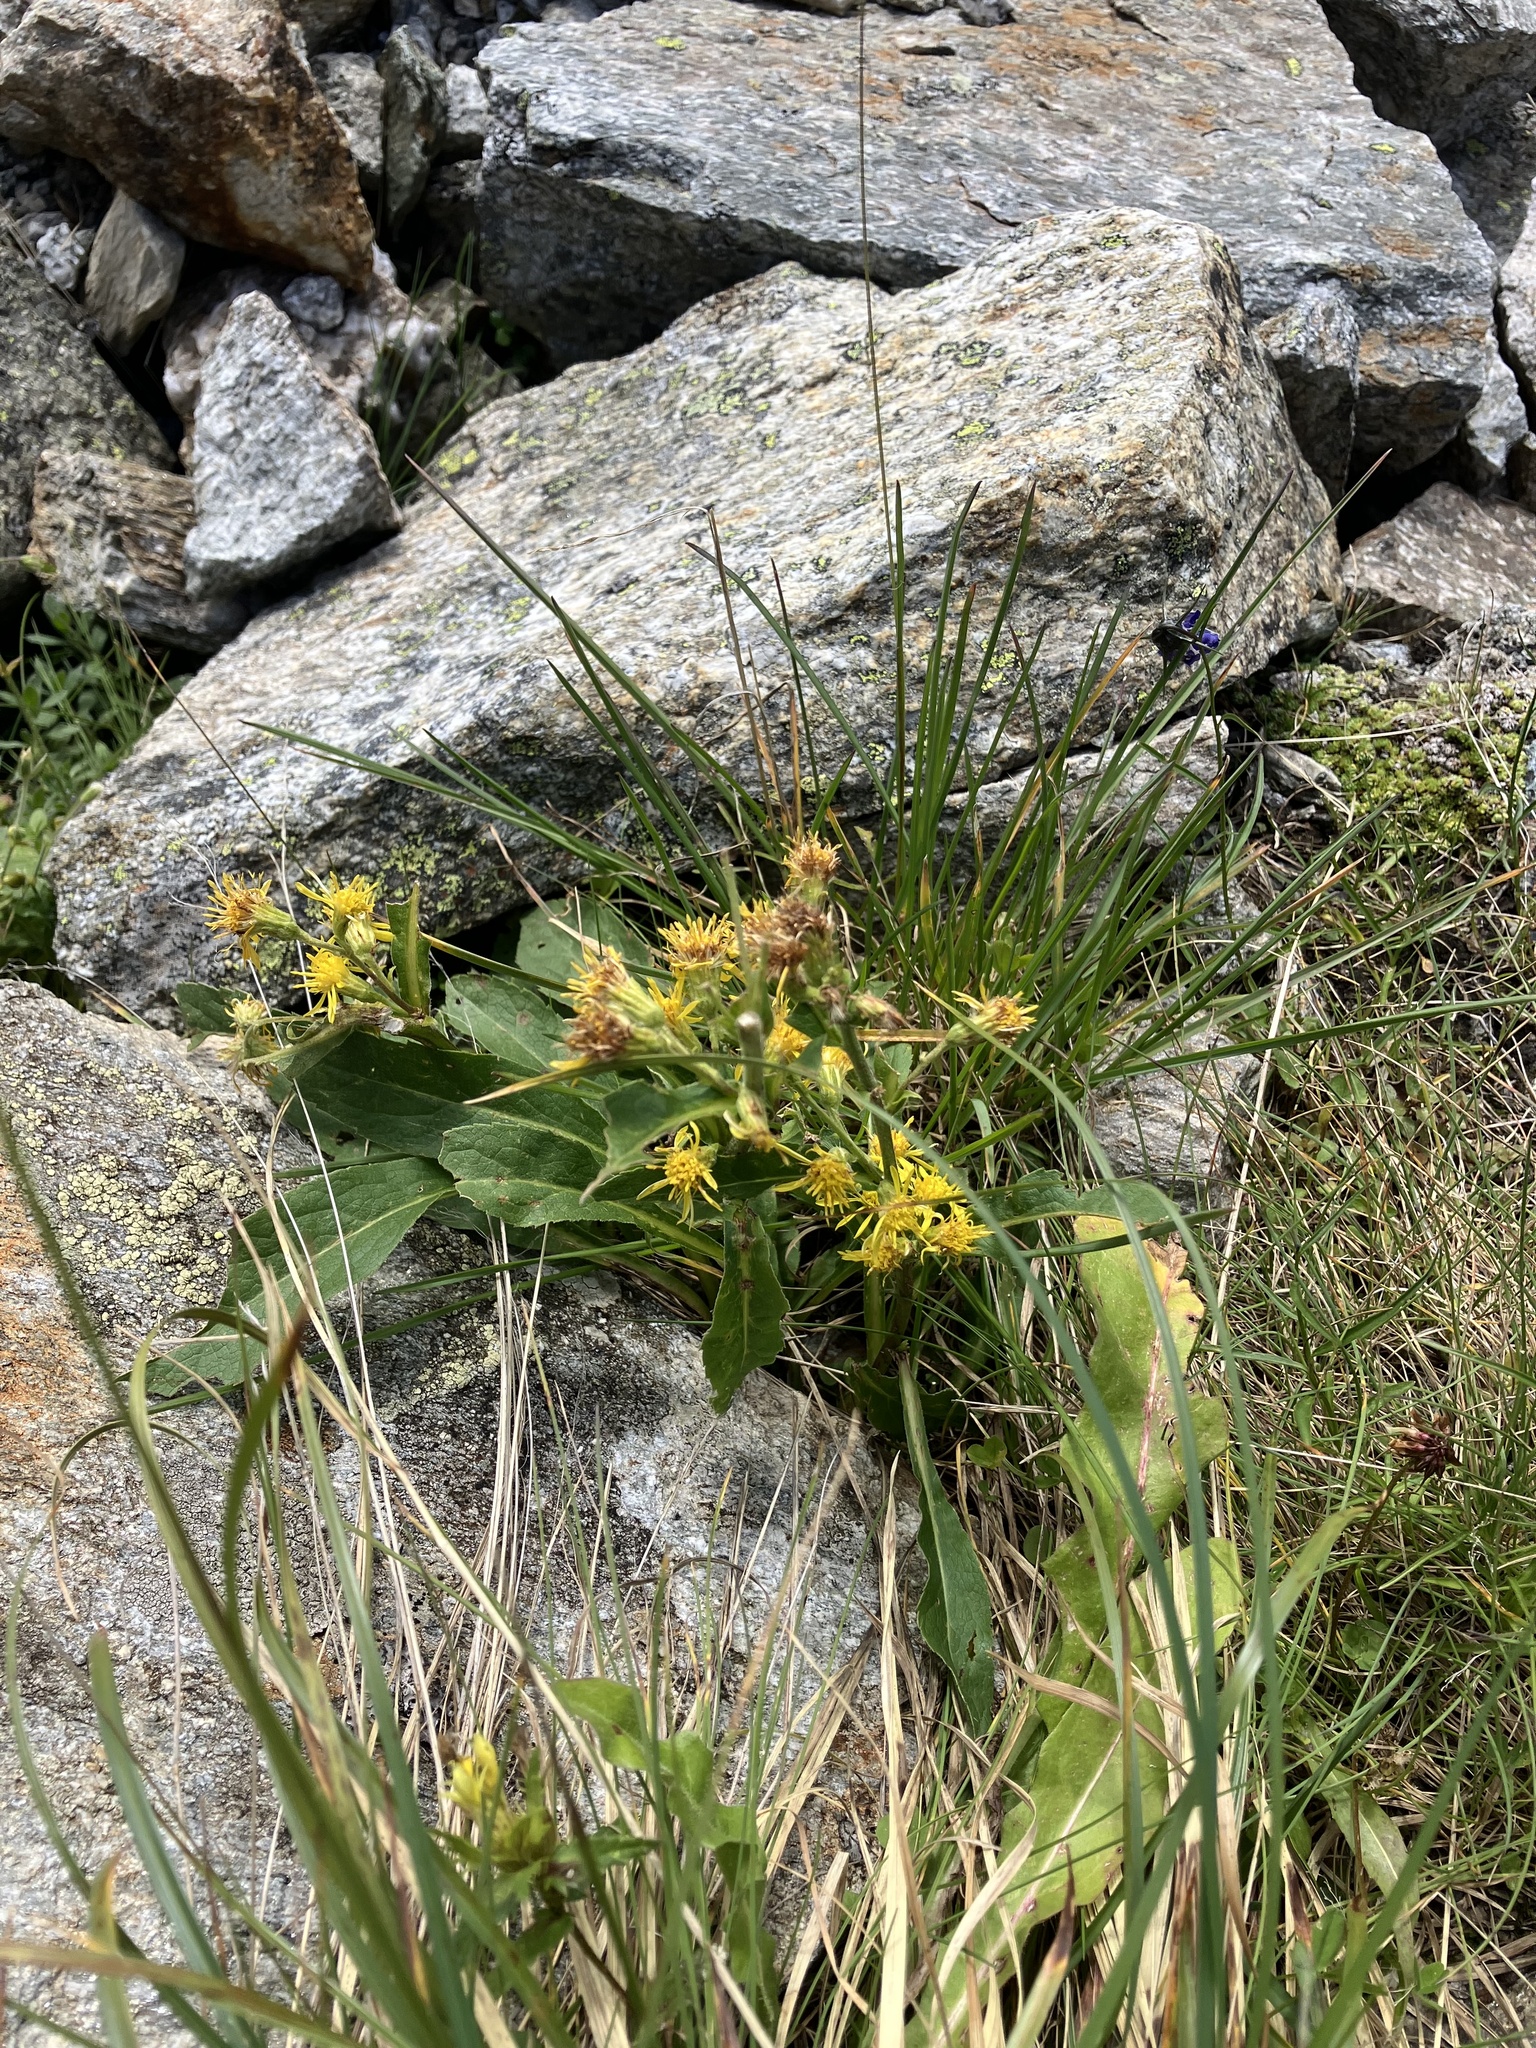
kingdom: Plantae
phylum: Tracheophyta
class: Magnoliopsida
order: Asterales
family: Asteraceae
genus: Solidago
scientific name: Solidago virgaurea
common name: Goldenrod
